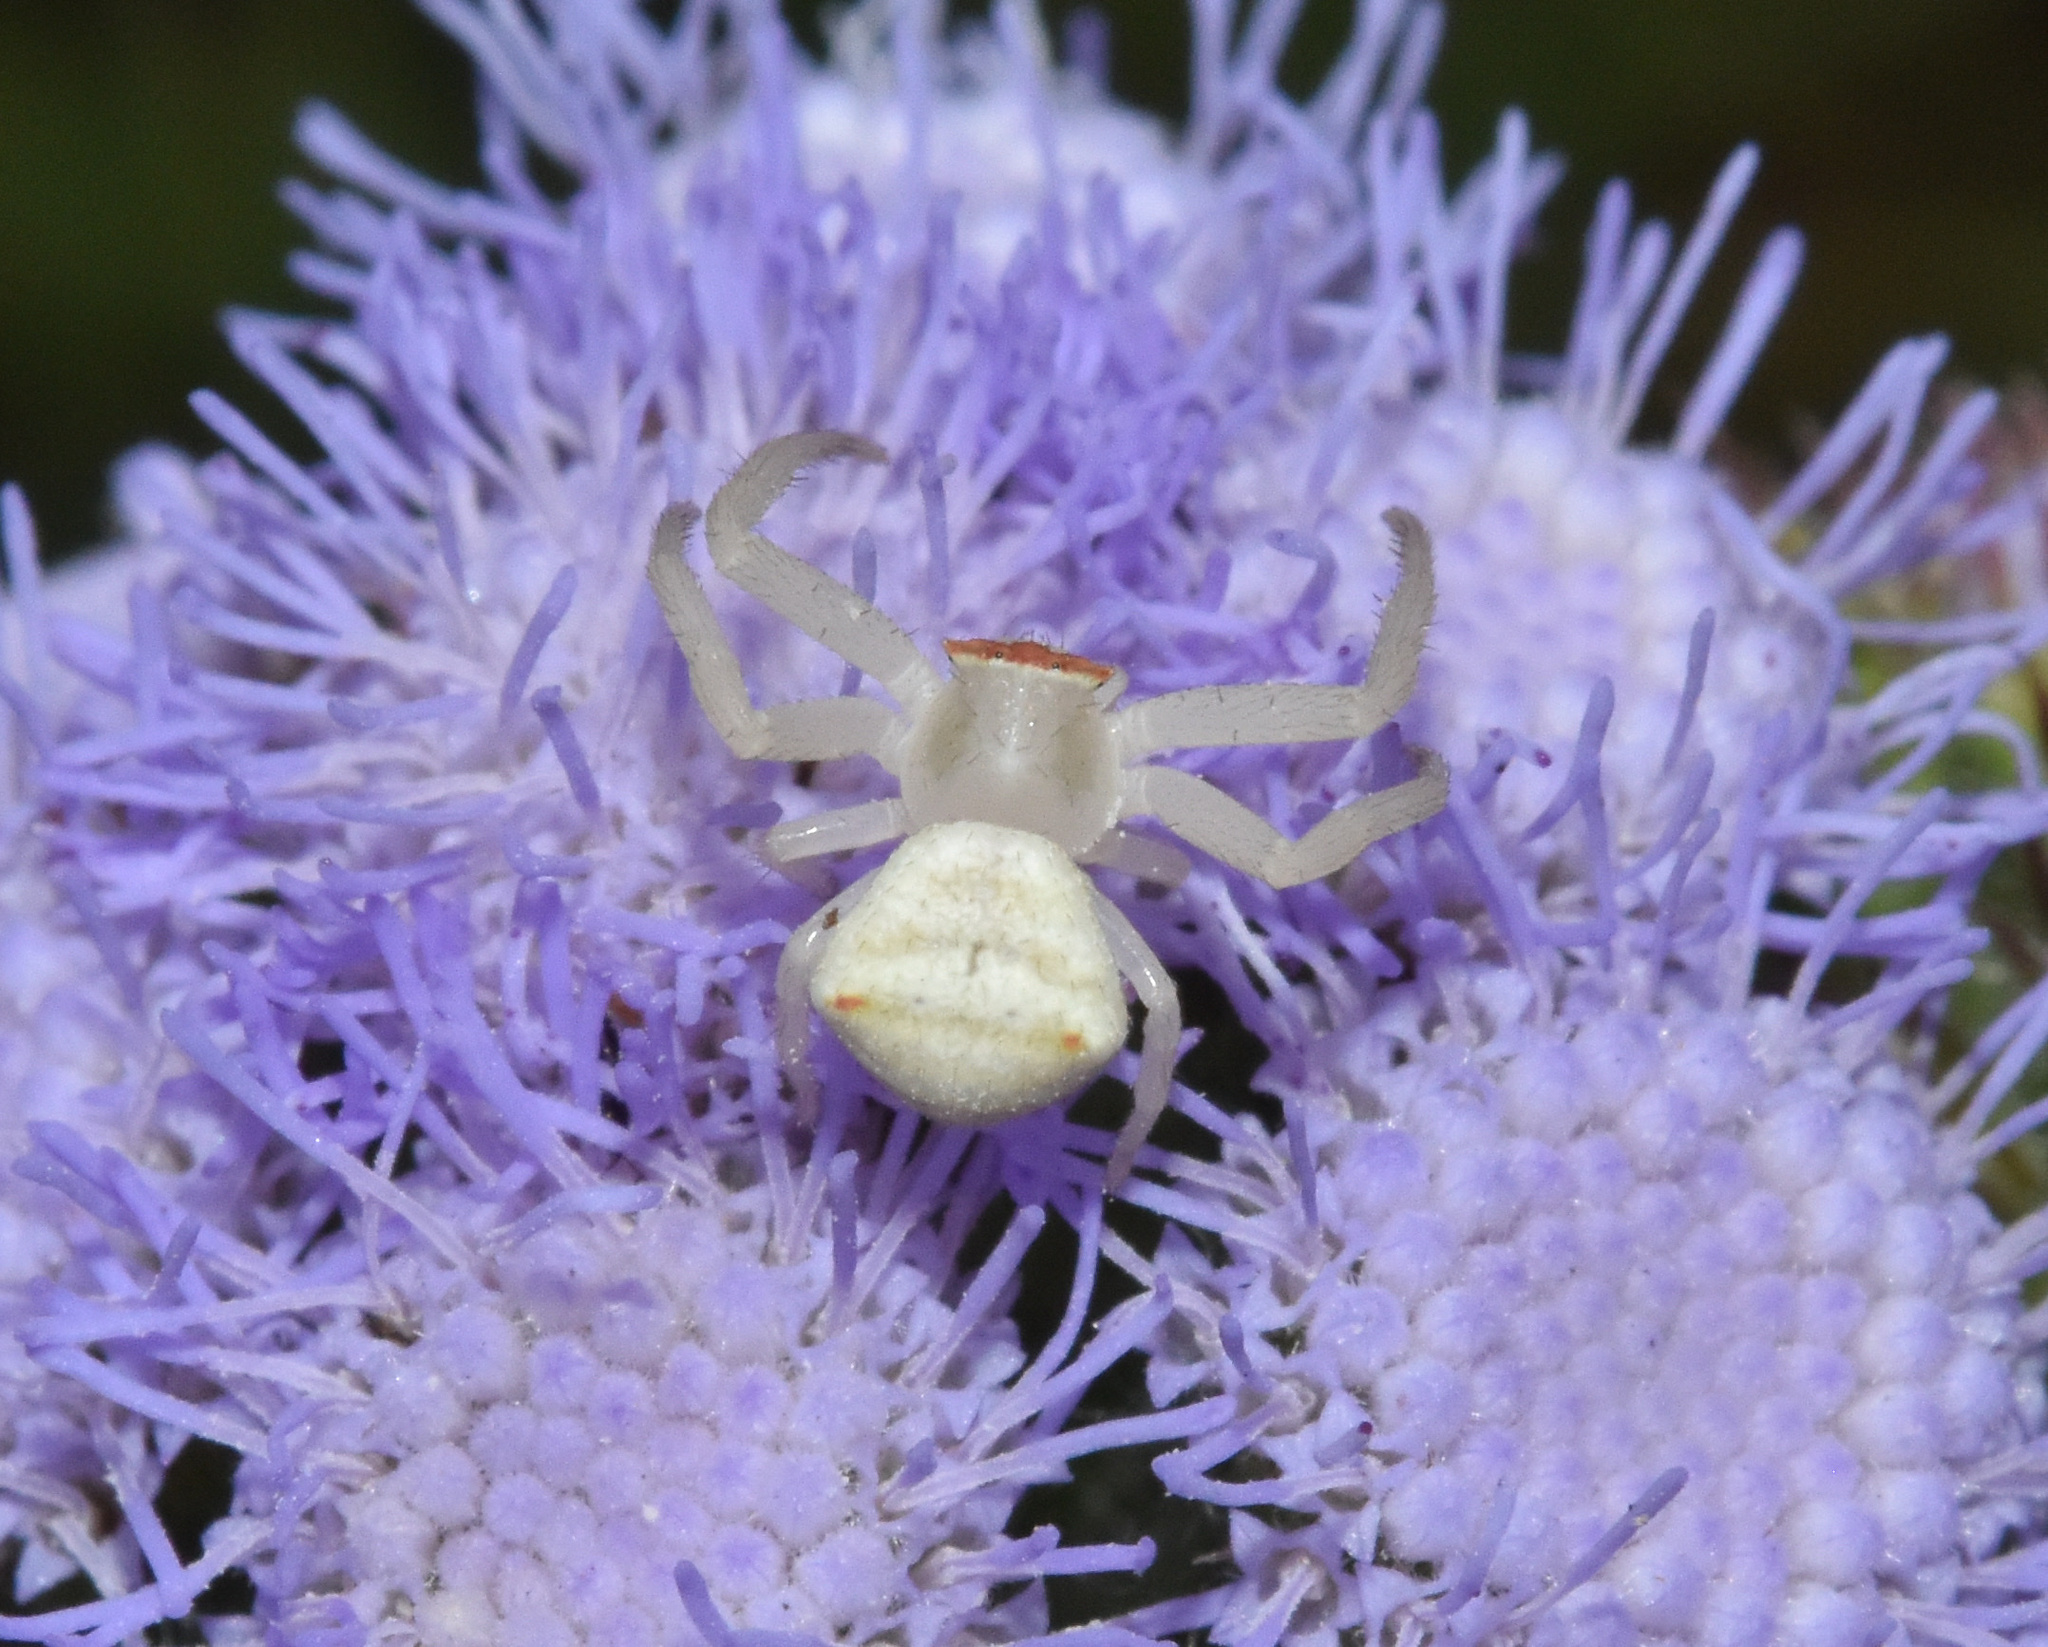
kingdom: Animalia
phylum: Arthropoda
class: Arachnida
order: Araneae
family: Thomisidae
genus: Thomisus
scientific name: Thomisus australis
